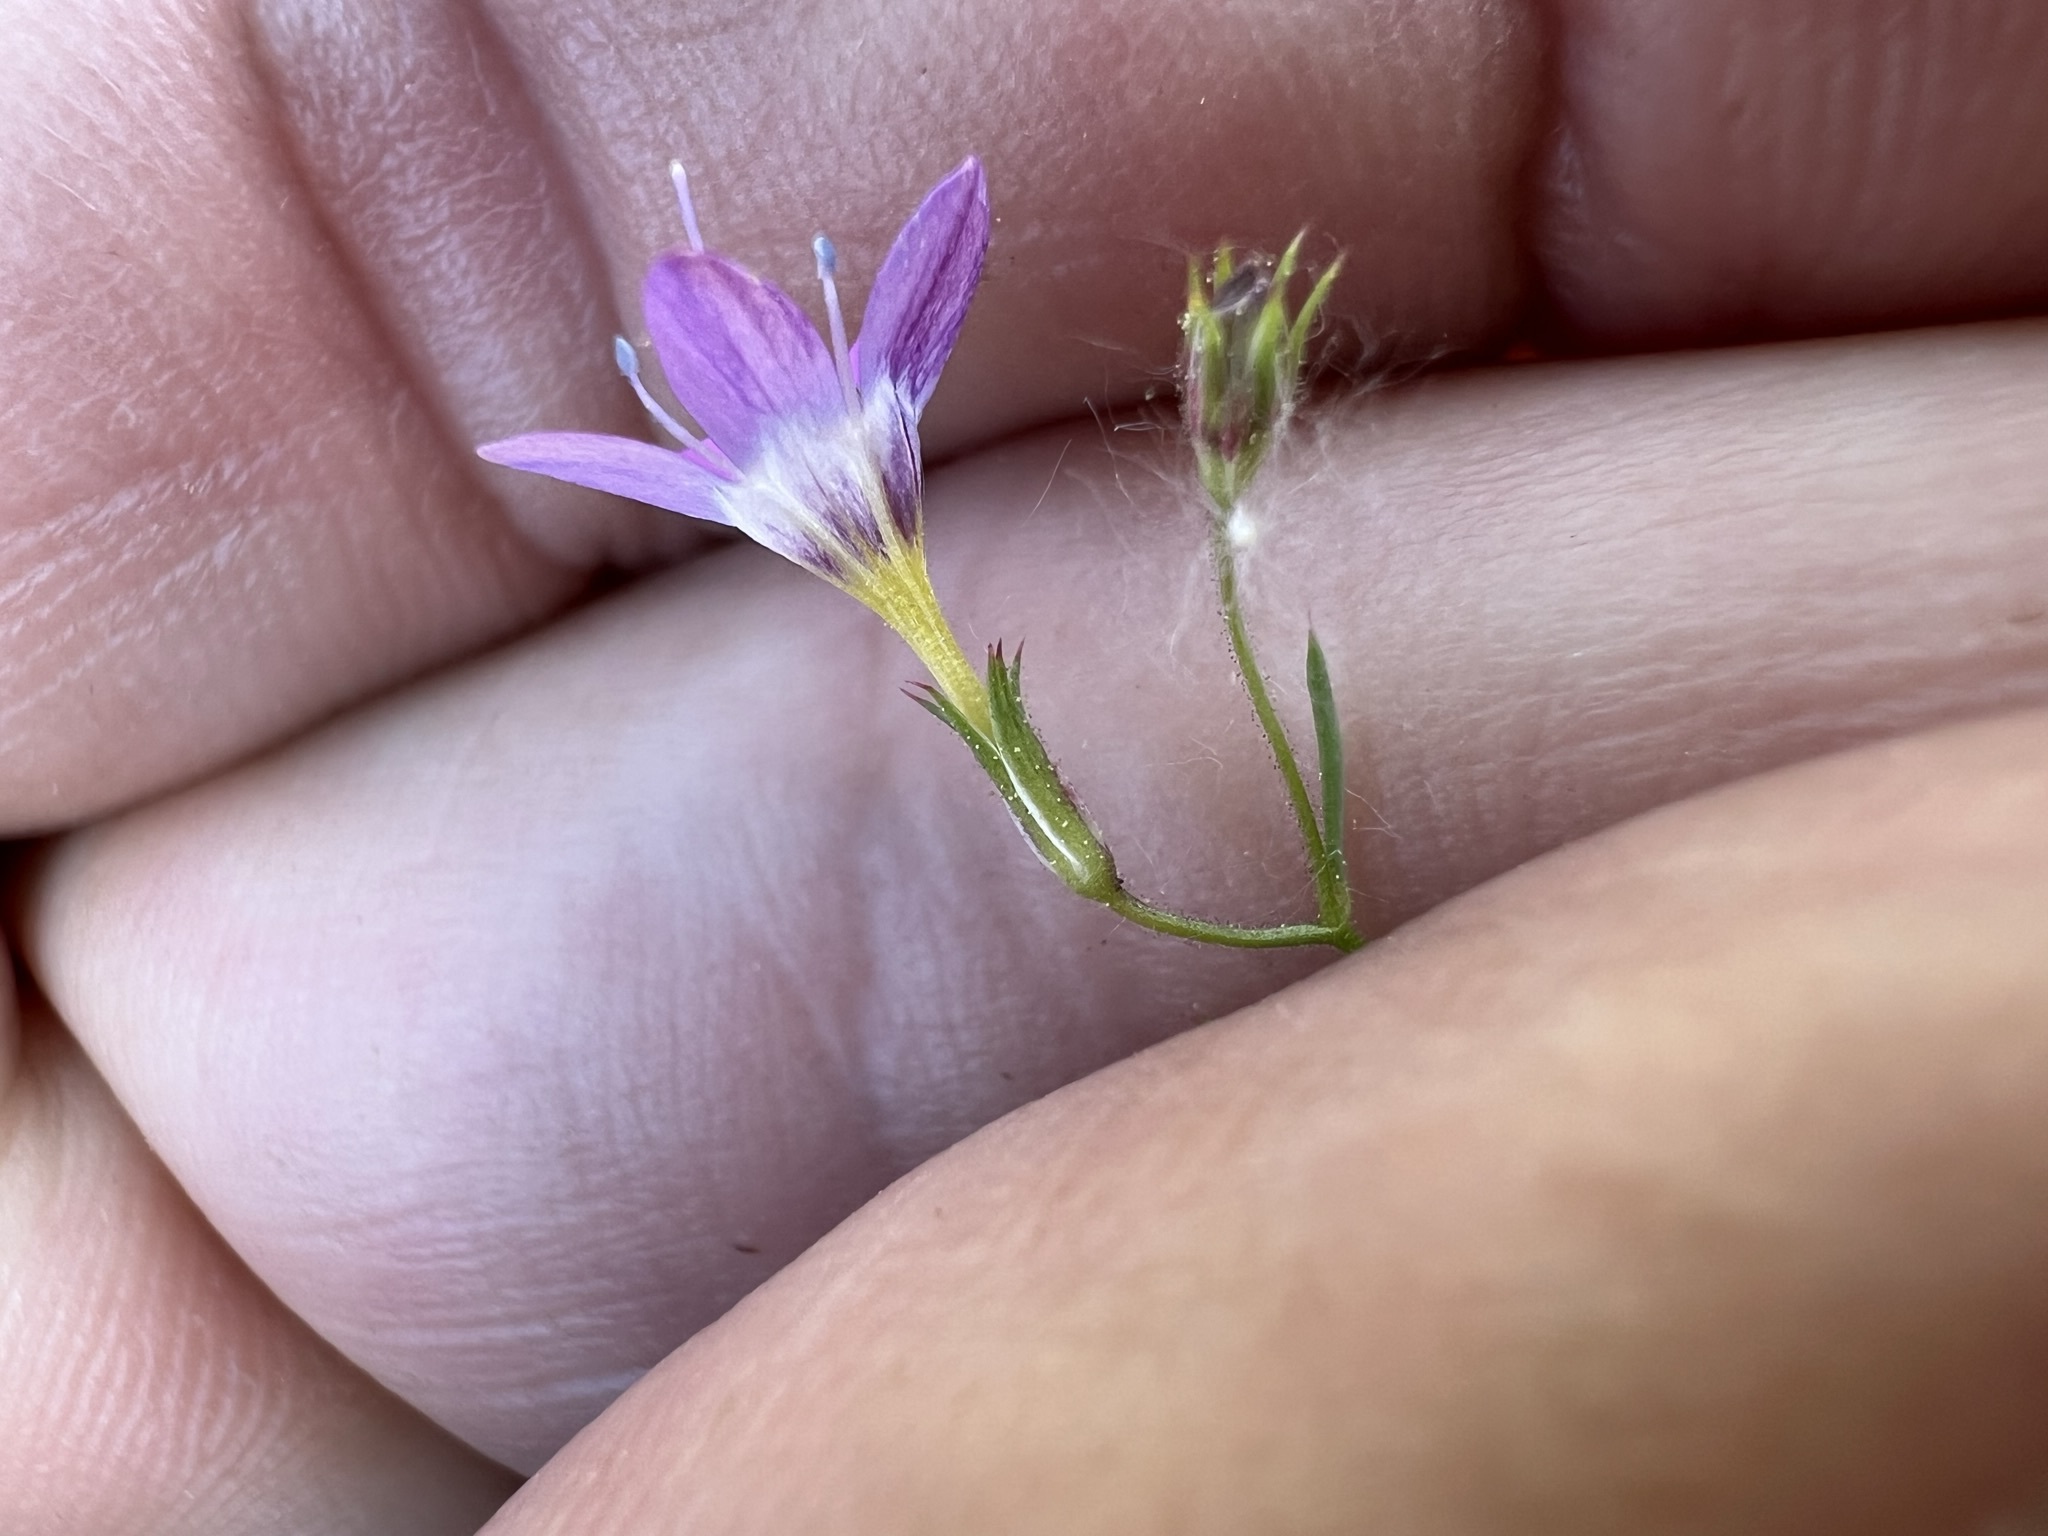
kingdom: Plantae
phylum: Tracheophyta
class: Magnoliopsida
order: Ericales
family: Polemoniaceae
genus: Navarretia
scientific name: Navarretia leptalea
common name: Bridges' pincushionplant
